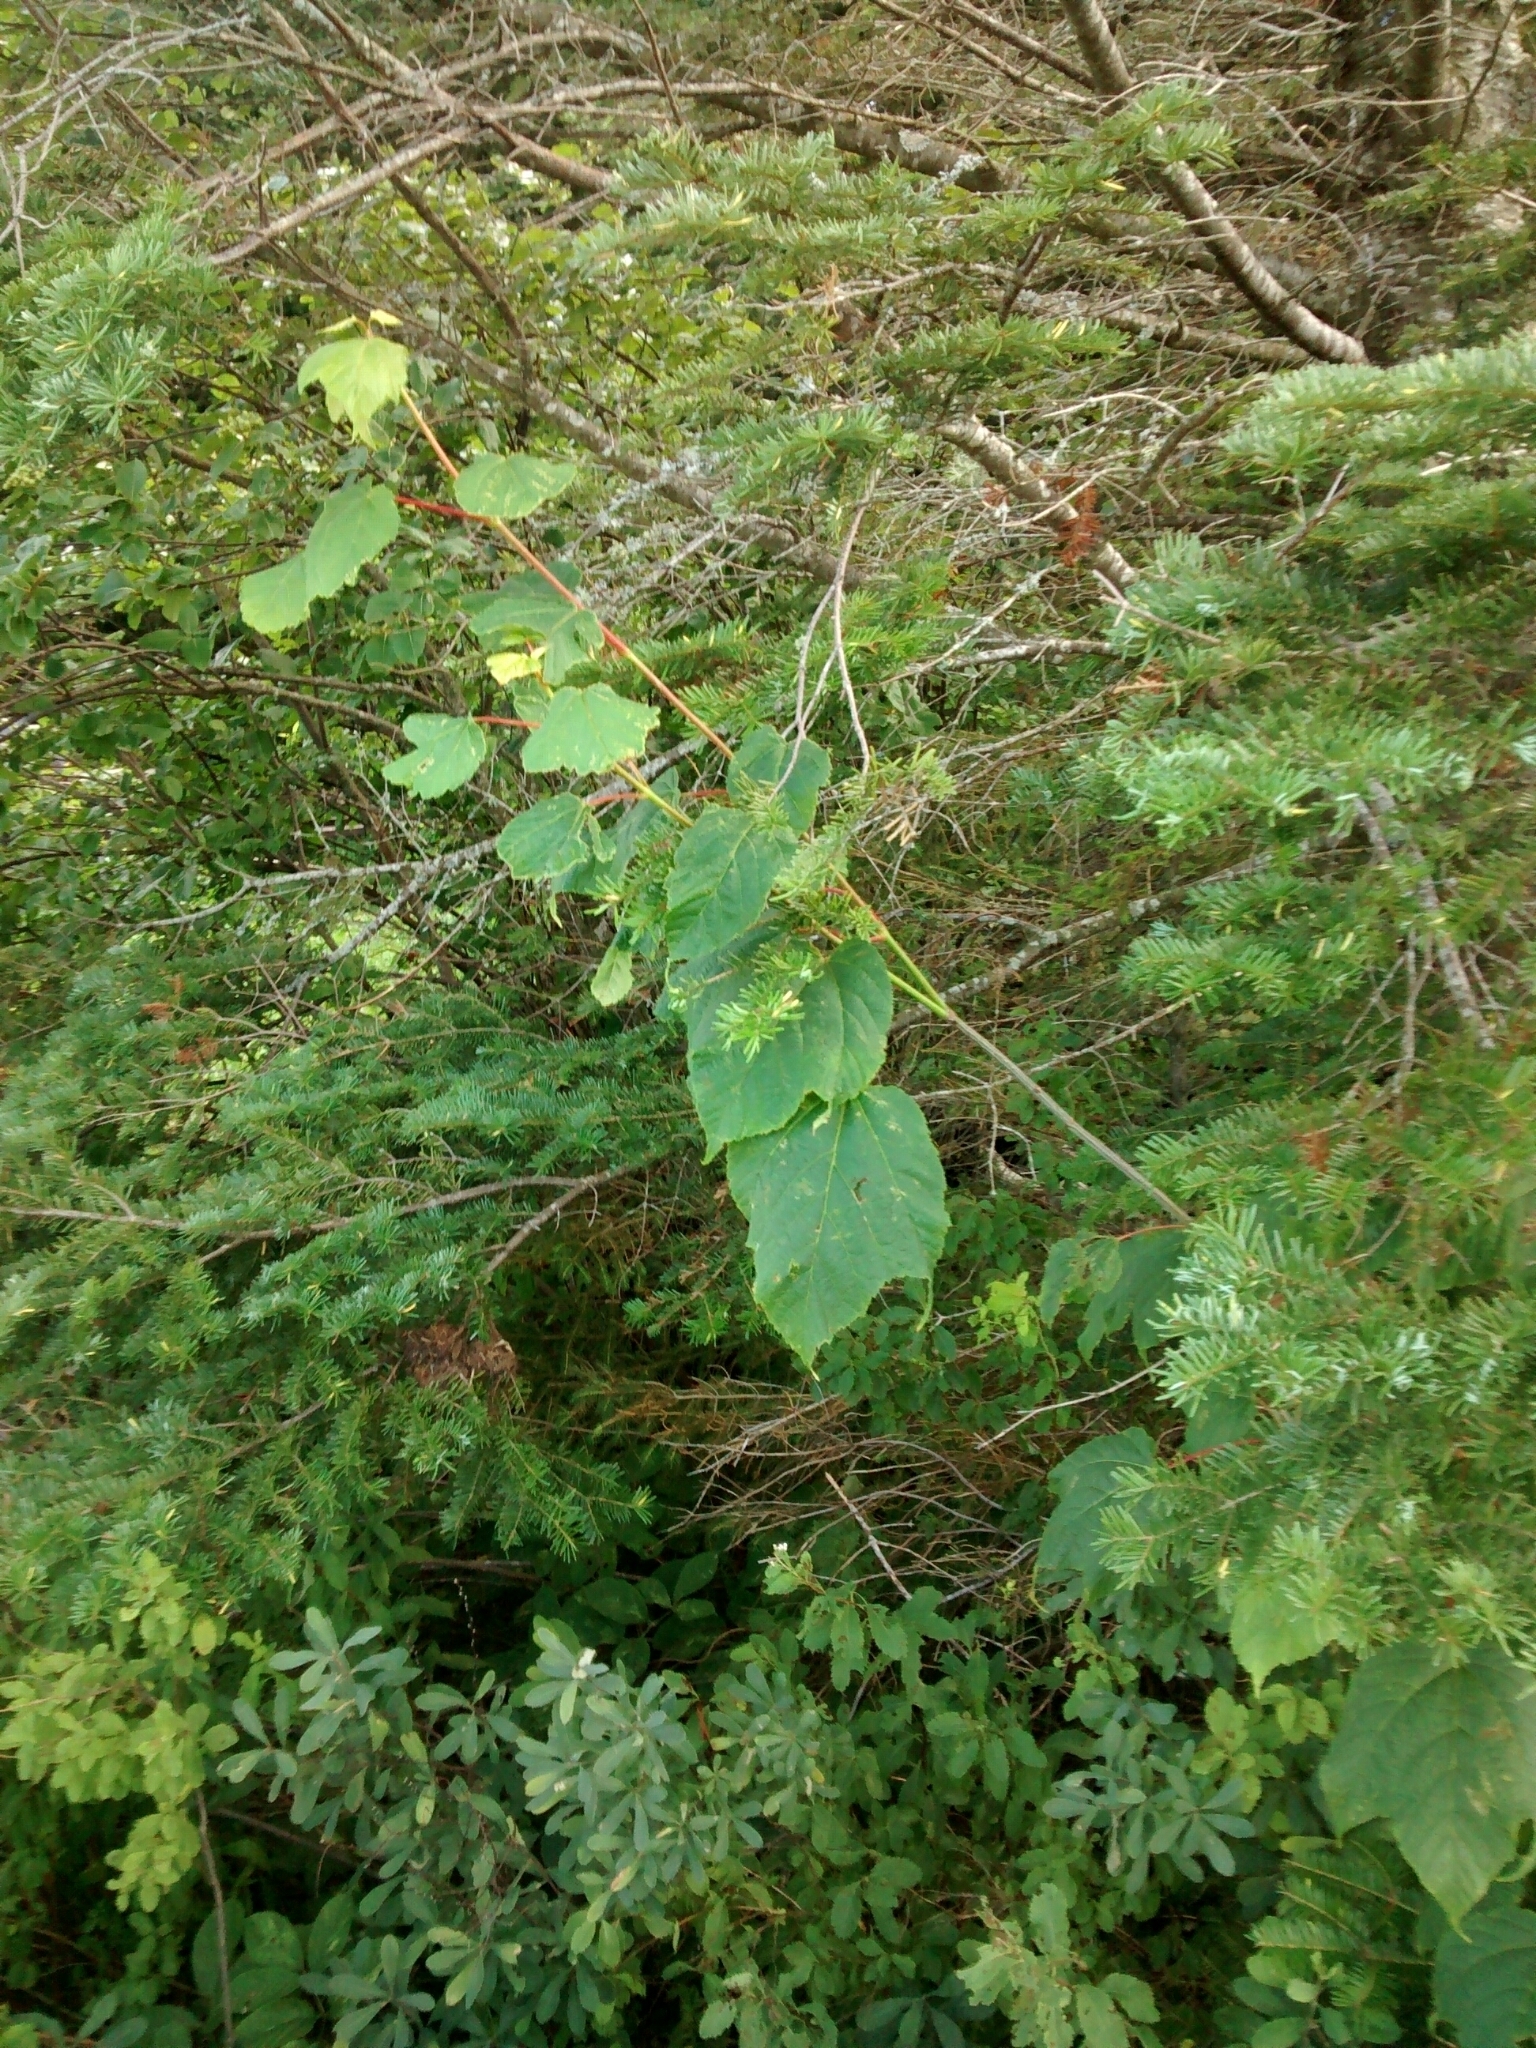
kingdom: Plantae
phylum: Tracheophyta
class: Magnoliopsida
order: Sapindales
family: Sapindaceae
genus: Acer
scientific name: Acer pensylvanicum
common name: Moosewood
